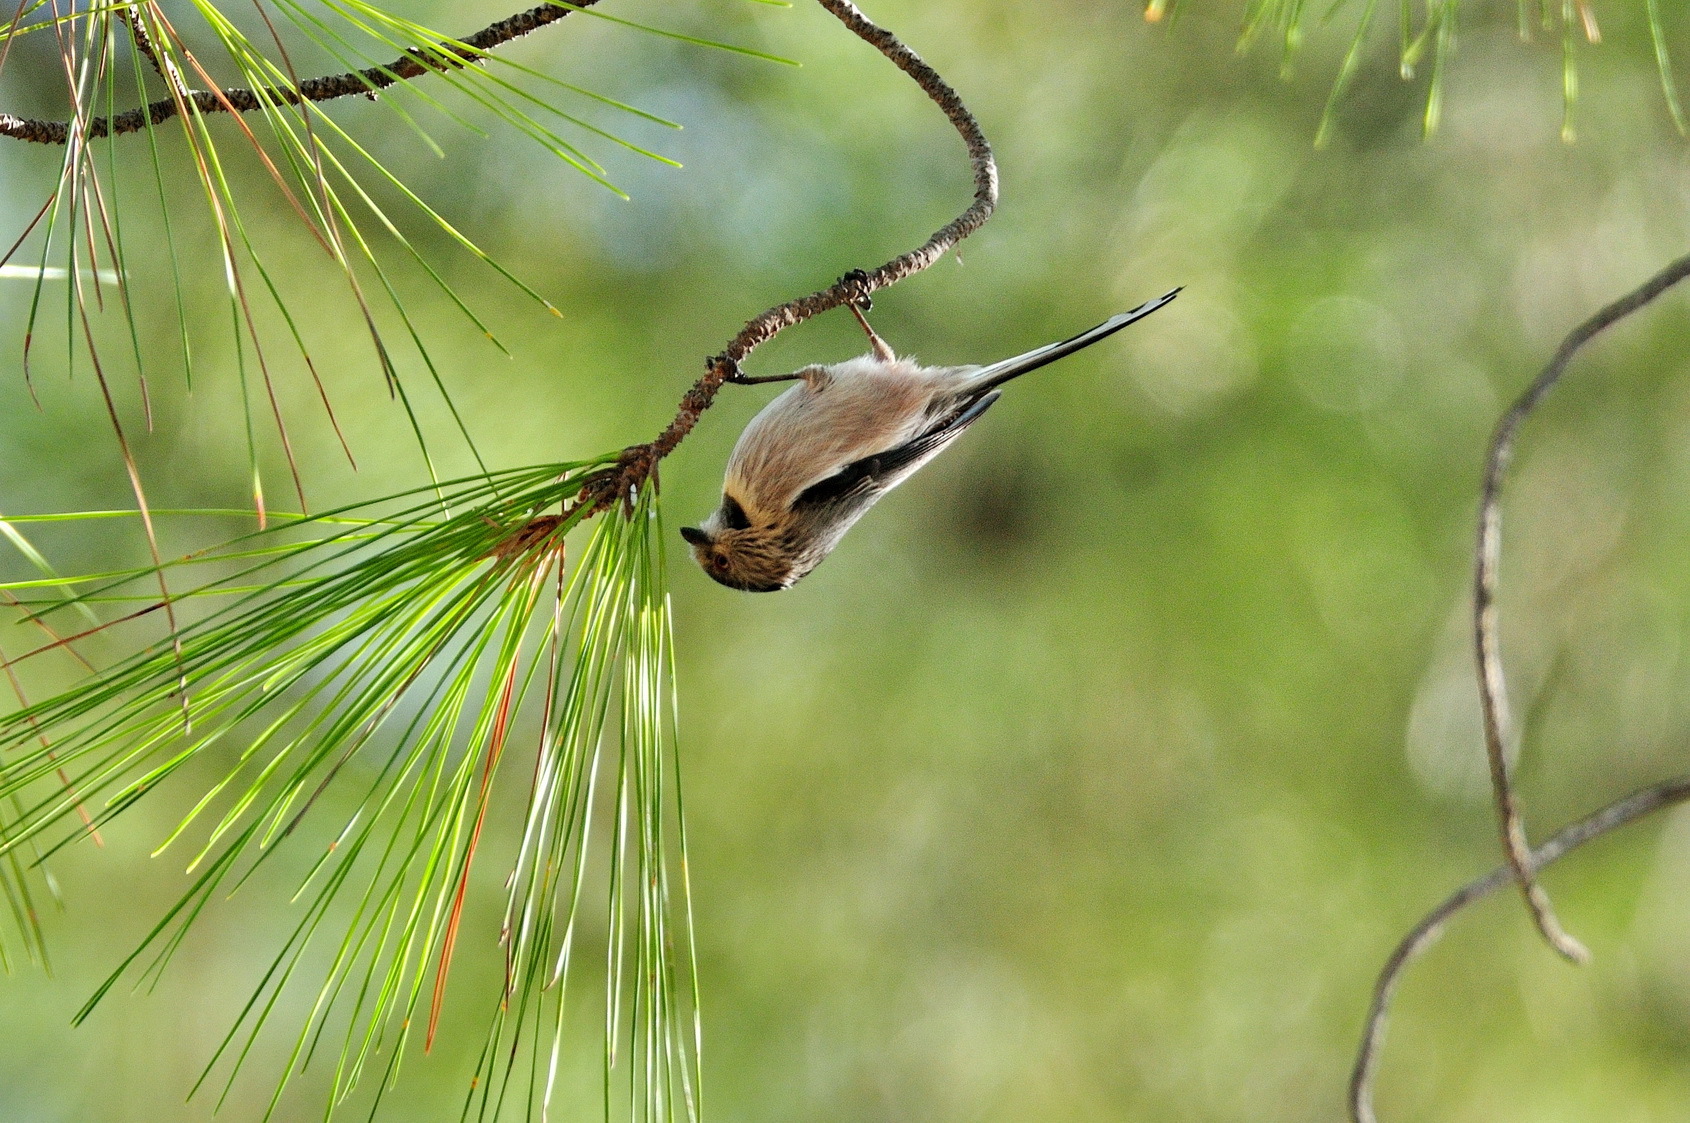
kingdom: Animalia
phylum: Chordata
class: Aves
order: Passeriformes
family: Aegithalidae
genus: Aegithalos
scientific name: Aegithalos caudatus
